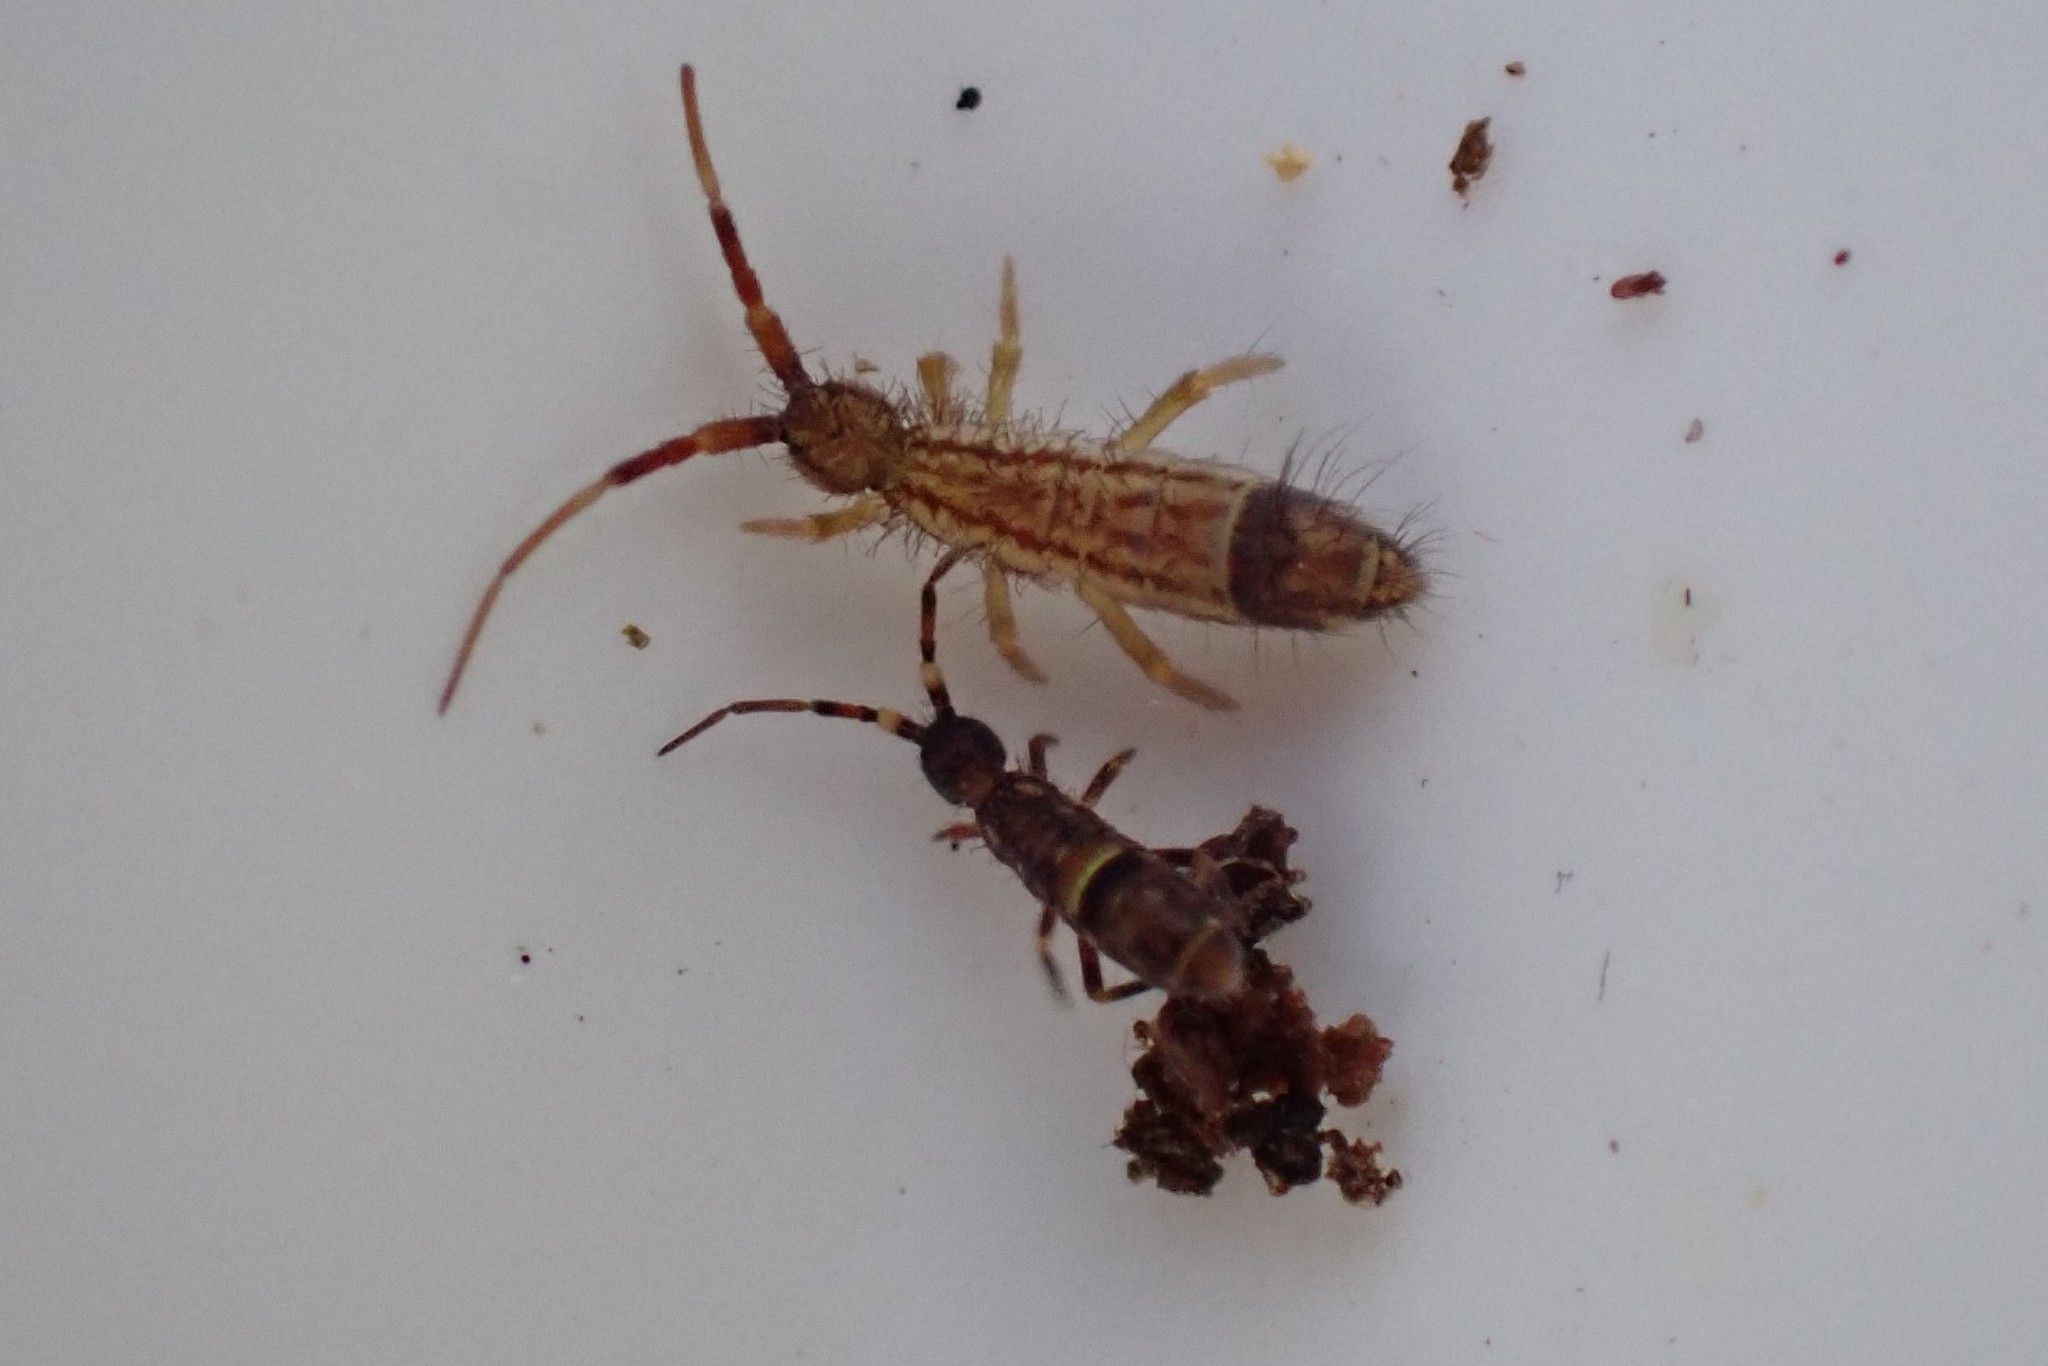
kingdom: Animalia
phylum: Arthropoda
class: Collembola
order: Entomobryomorpha
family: Entomobryidae
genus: Entomobrya
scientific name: Entomobrya nivalis
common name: Cosmopolitan springtail
